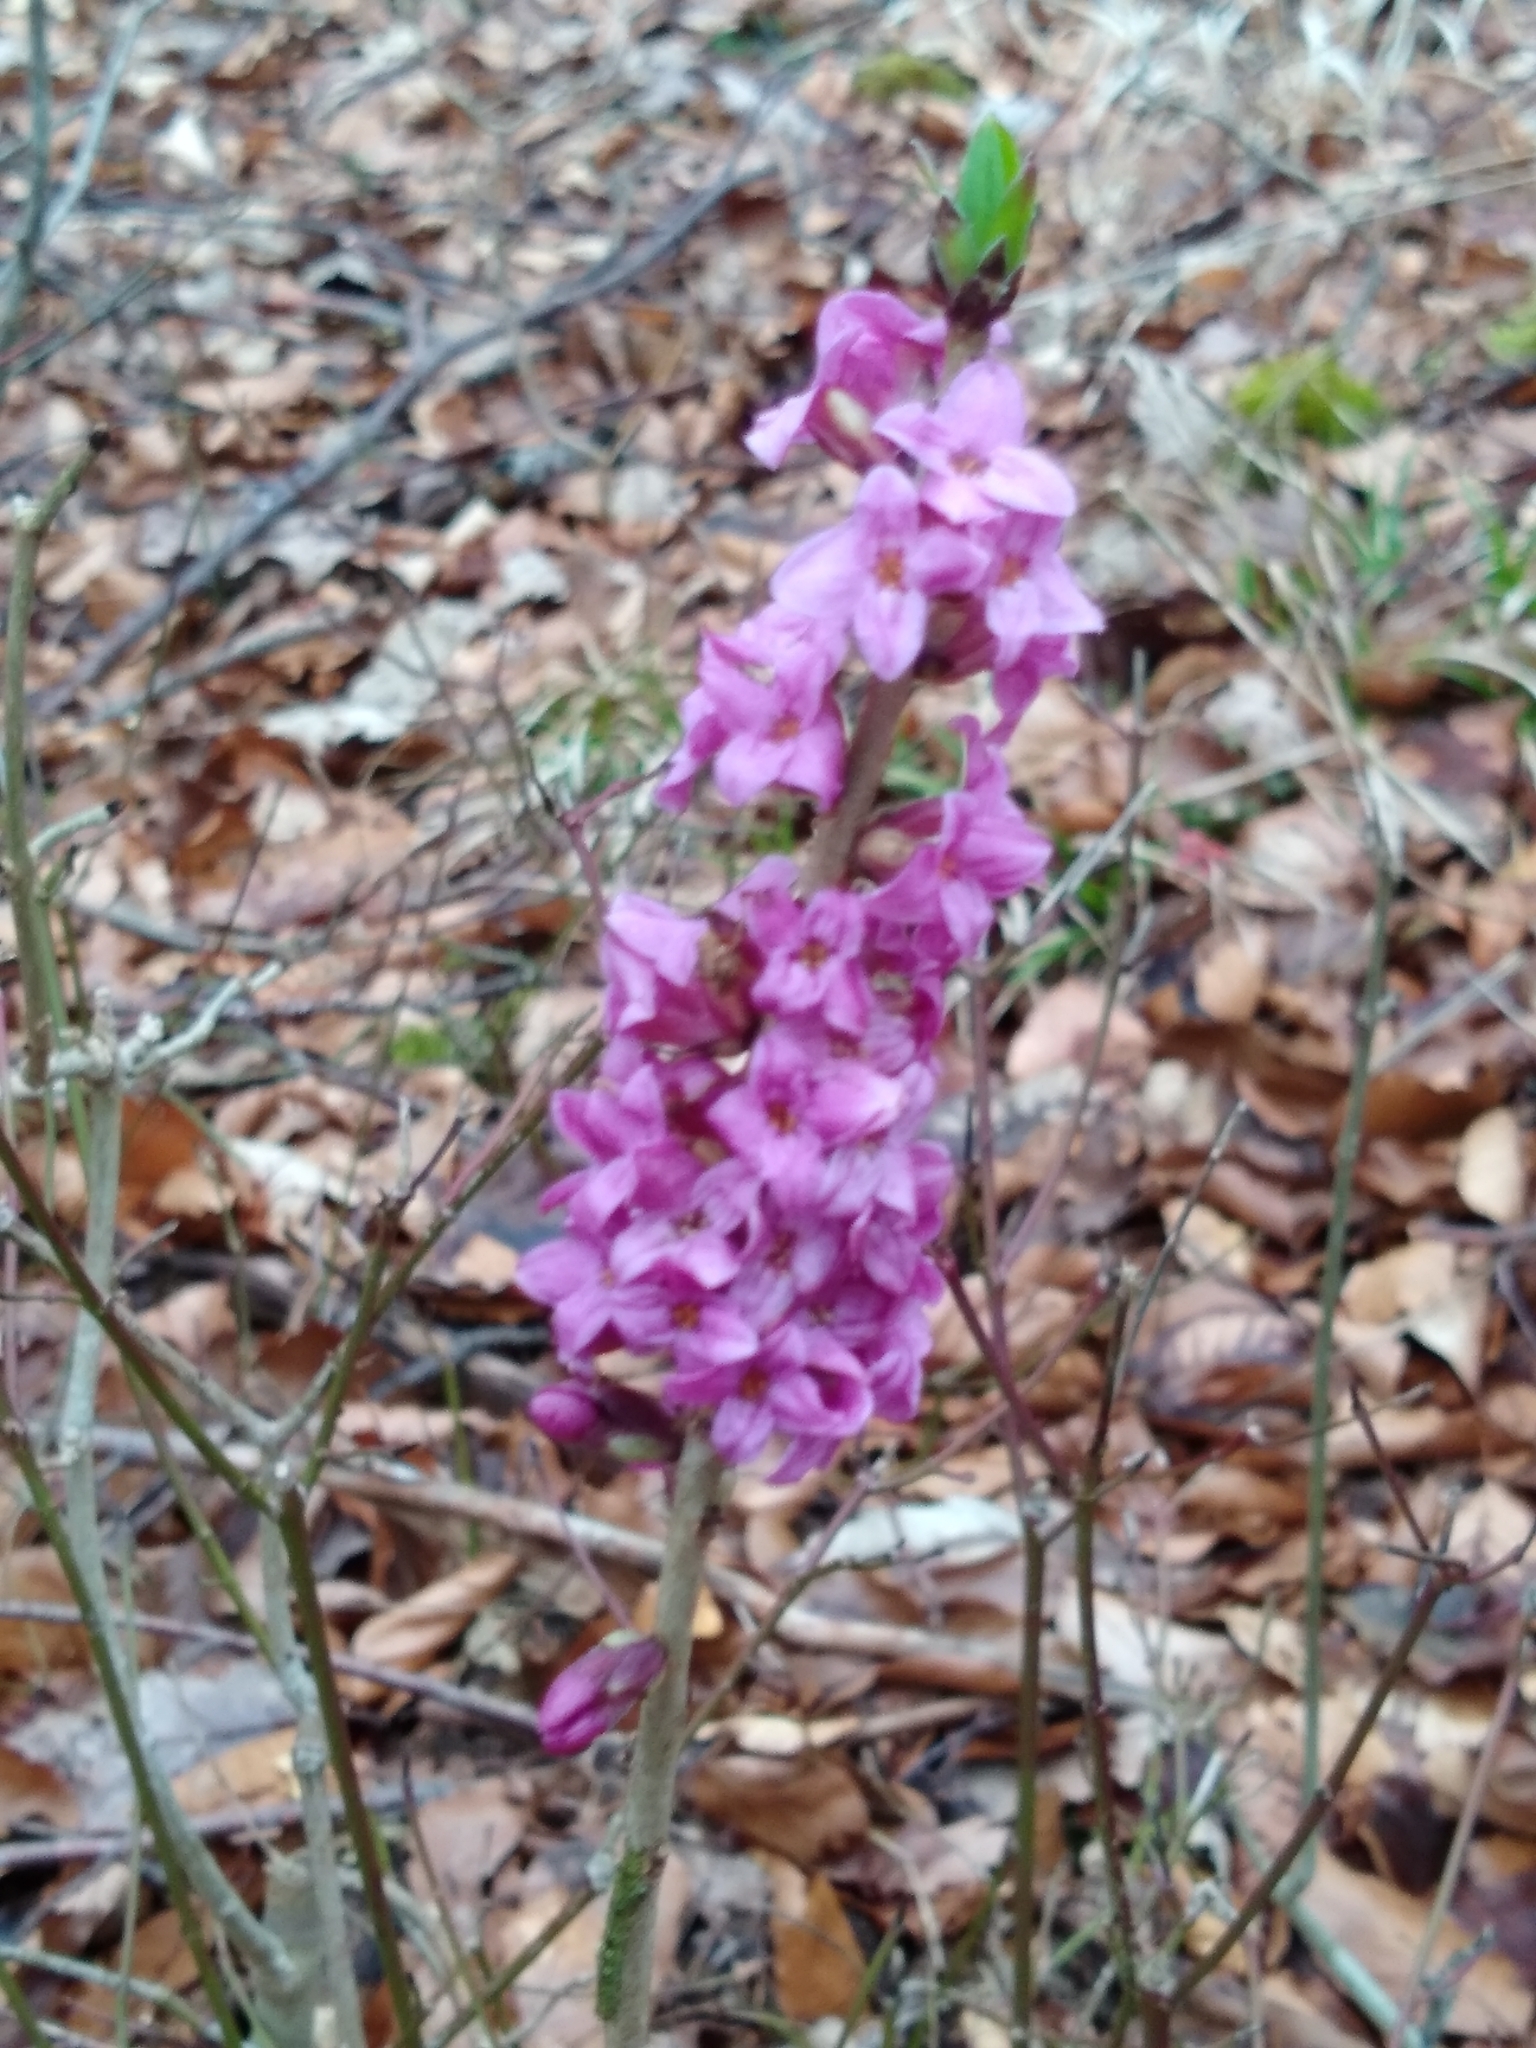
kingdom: Plantae
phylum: Tracheophyta
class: Magnoliopsida
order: Malvales
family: Thymelaeaceae
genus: Daphne
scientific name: Daphne mezereum
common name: Mezereon
